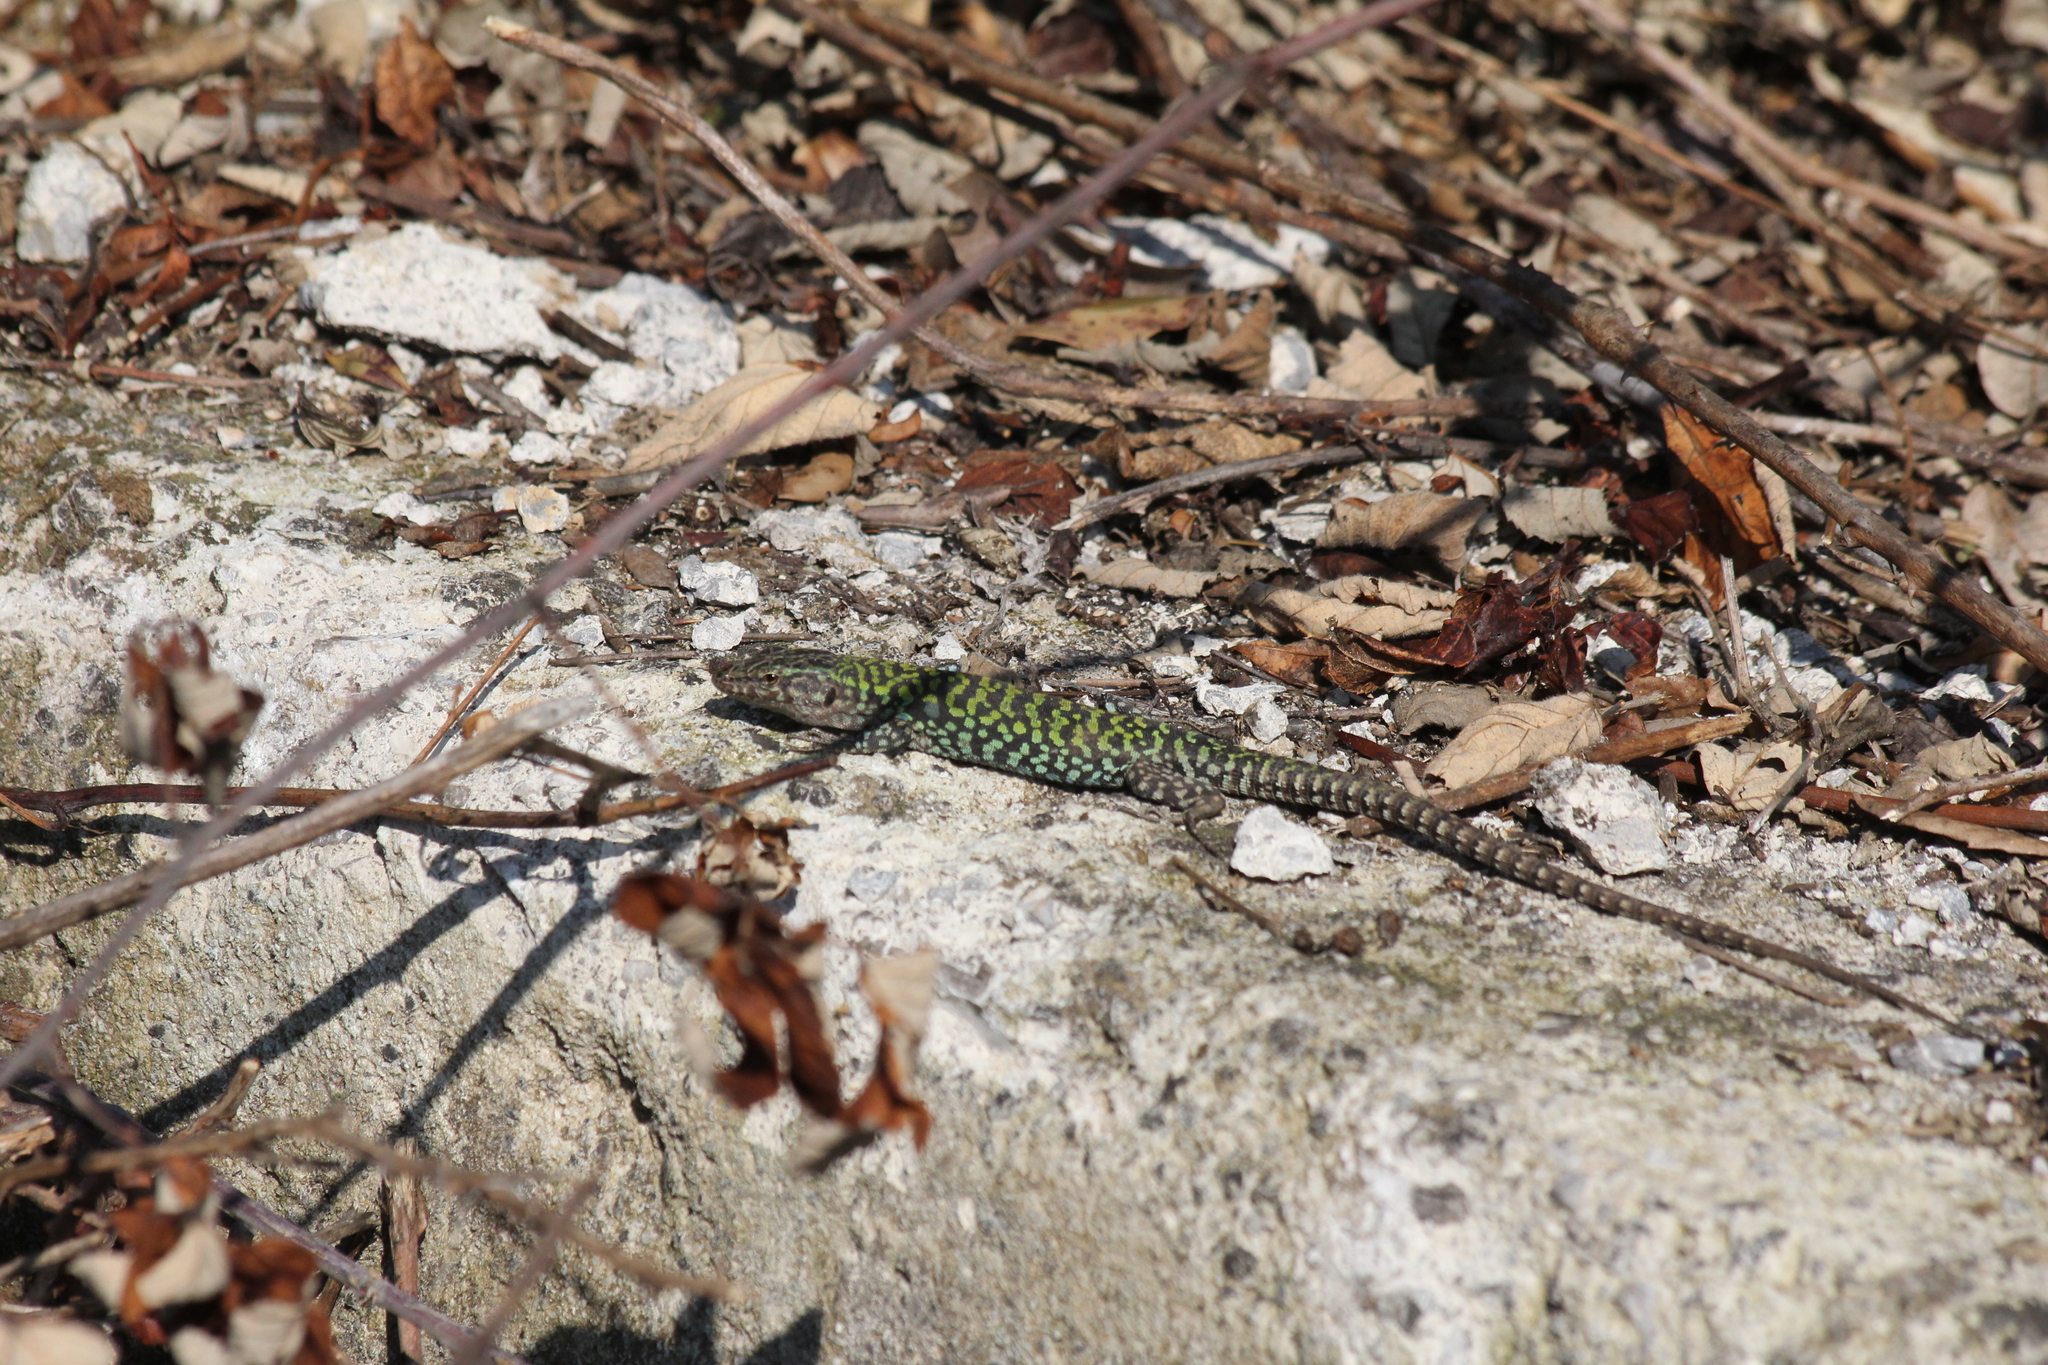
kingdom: Animalia
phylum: Chordata
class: Squamata
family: Lacertidae
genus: Podarcis
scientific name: Podarcis siculus
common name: Italian wall lizard
